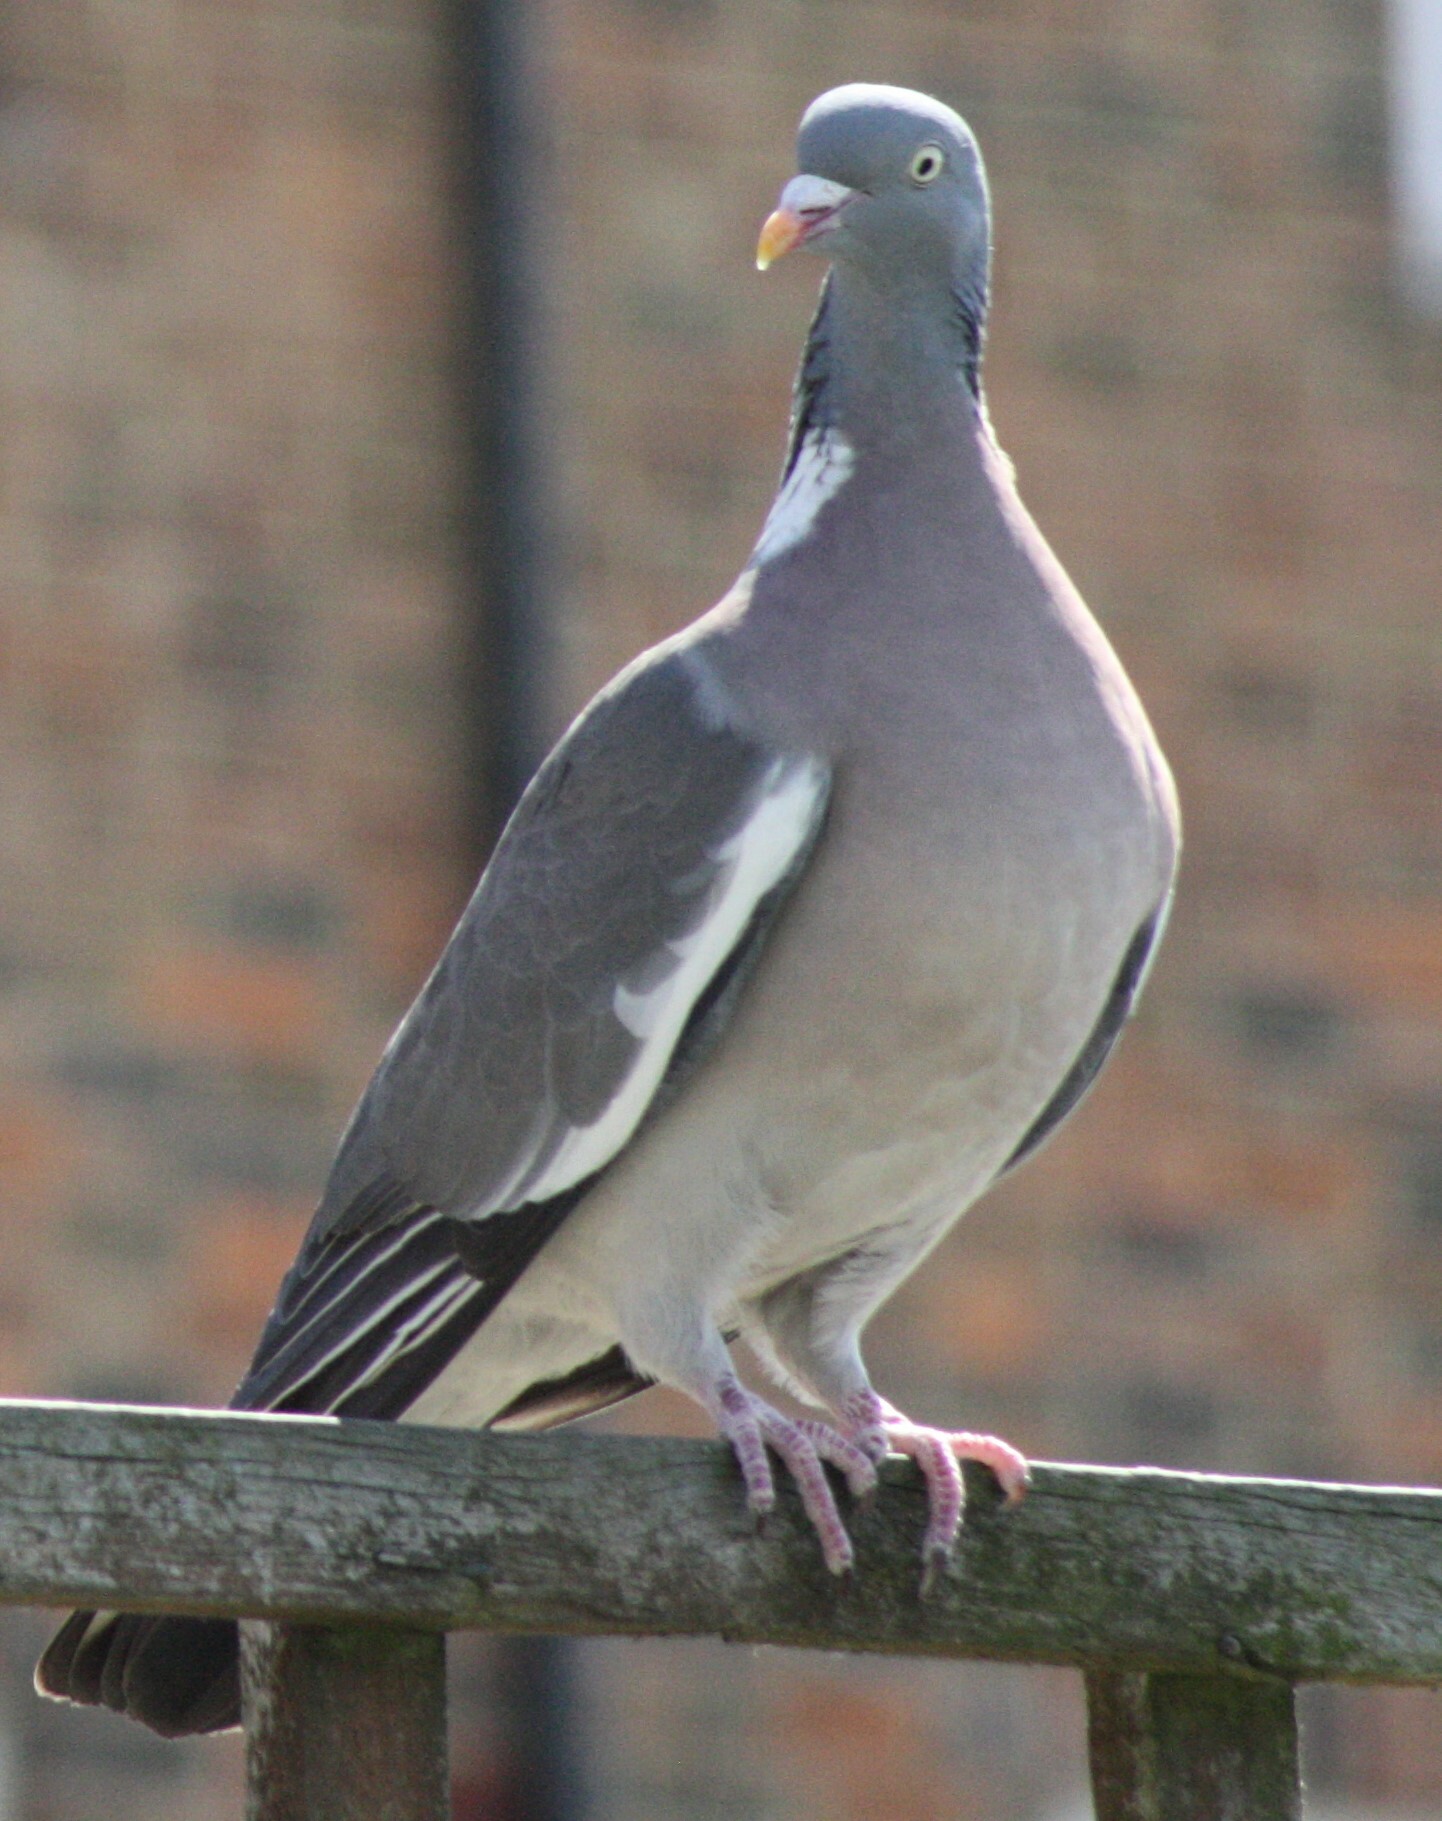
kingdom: Animalia
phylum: Chordata
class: Aves
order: Columbiformes
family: Columbidae
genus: Columba
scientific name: Columba palumbus
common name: Common wood pigeon
